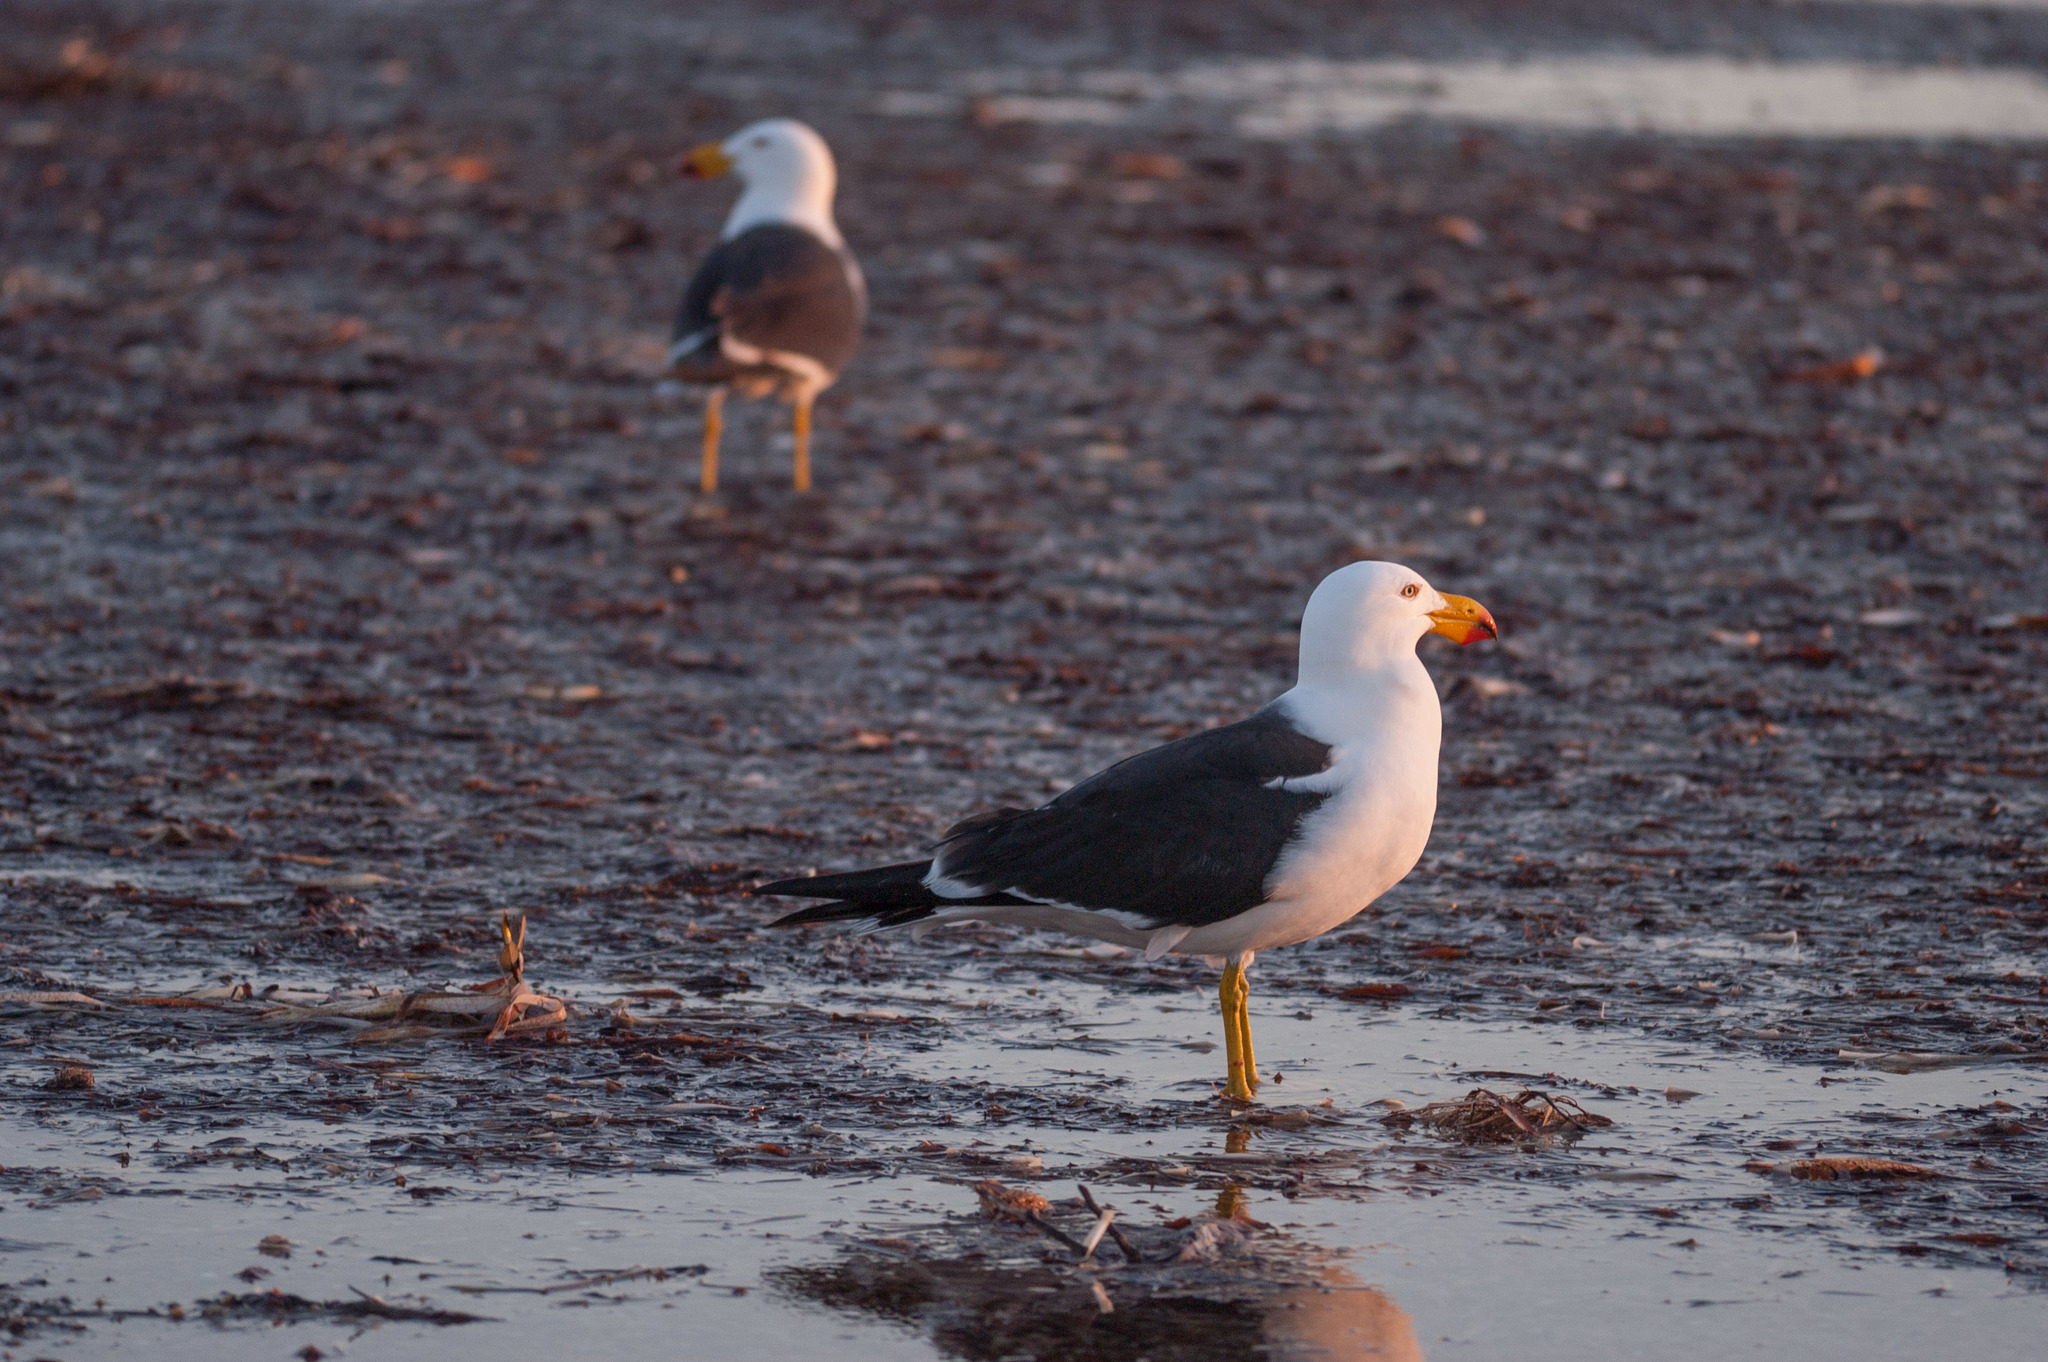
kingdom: Animalia
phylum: Chordata
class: Aves
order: Charadriiformes
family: Laridae
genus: Larus
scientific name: Larus pacificus
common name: Pacific gull
